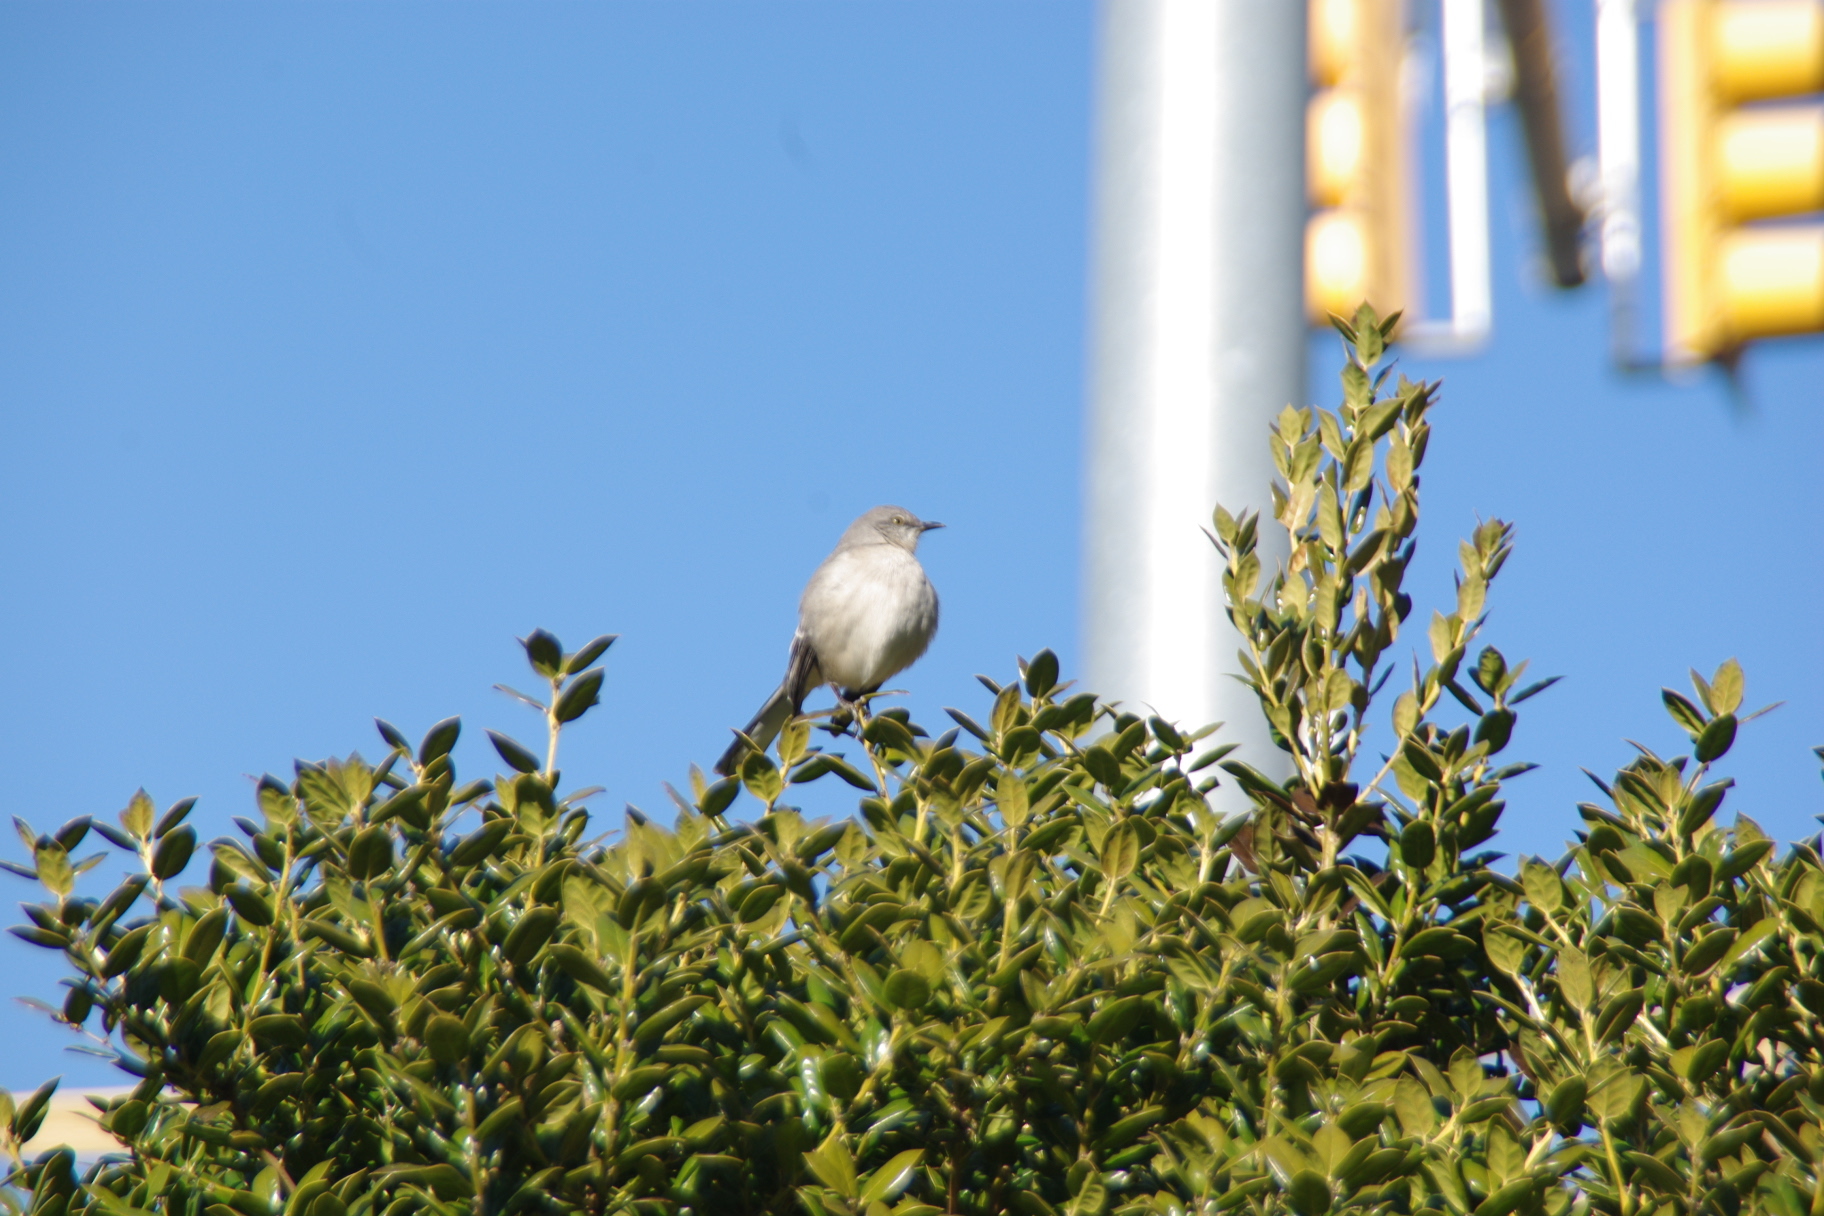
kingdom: Animalia
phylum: Chordata
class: Aves
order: Passeriformes
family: Mimidae
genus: Mimus
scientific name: Mimus polyglottos
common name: Northern mockingbird
